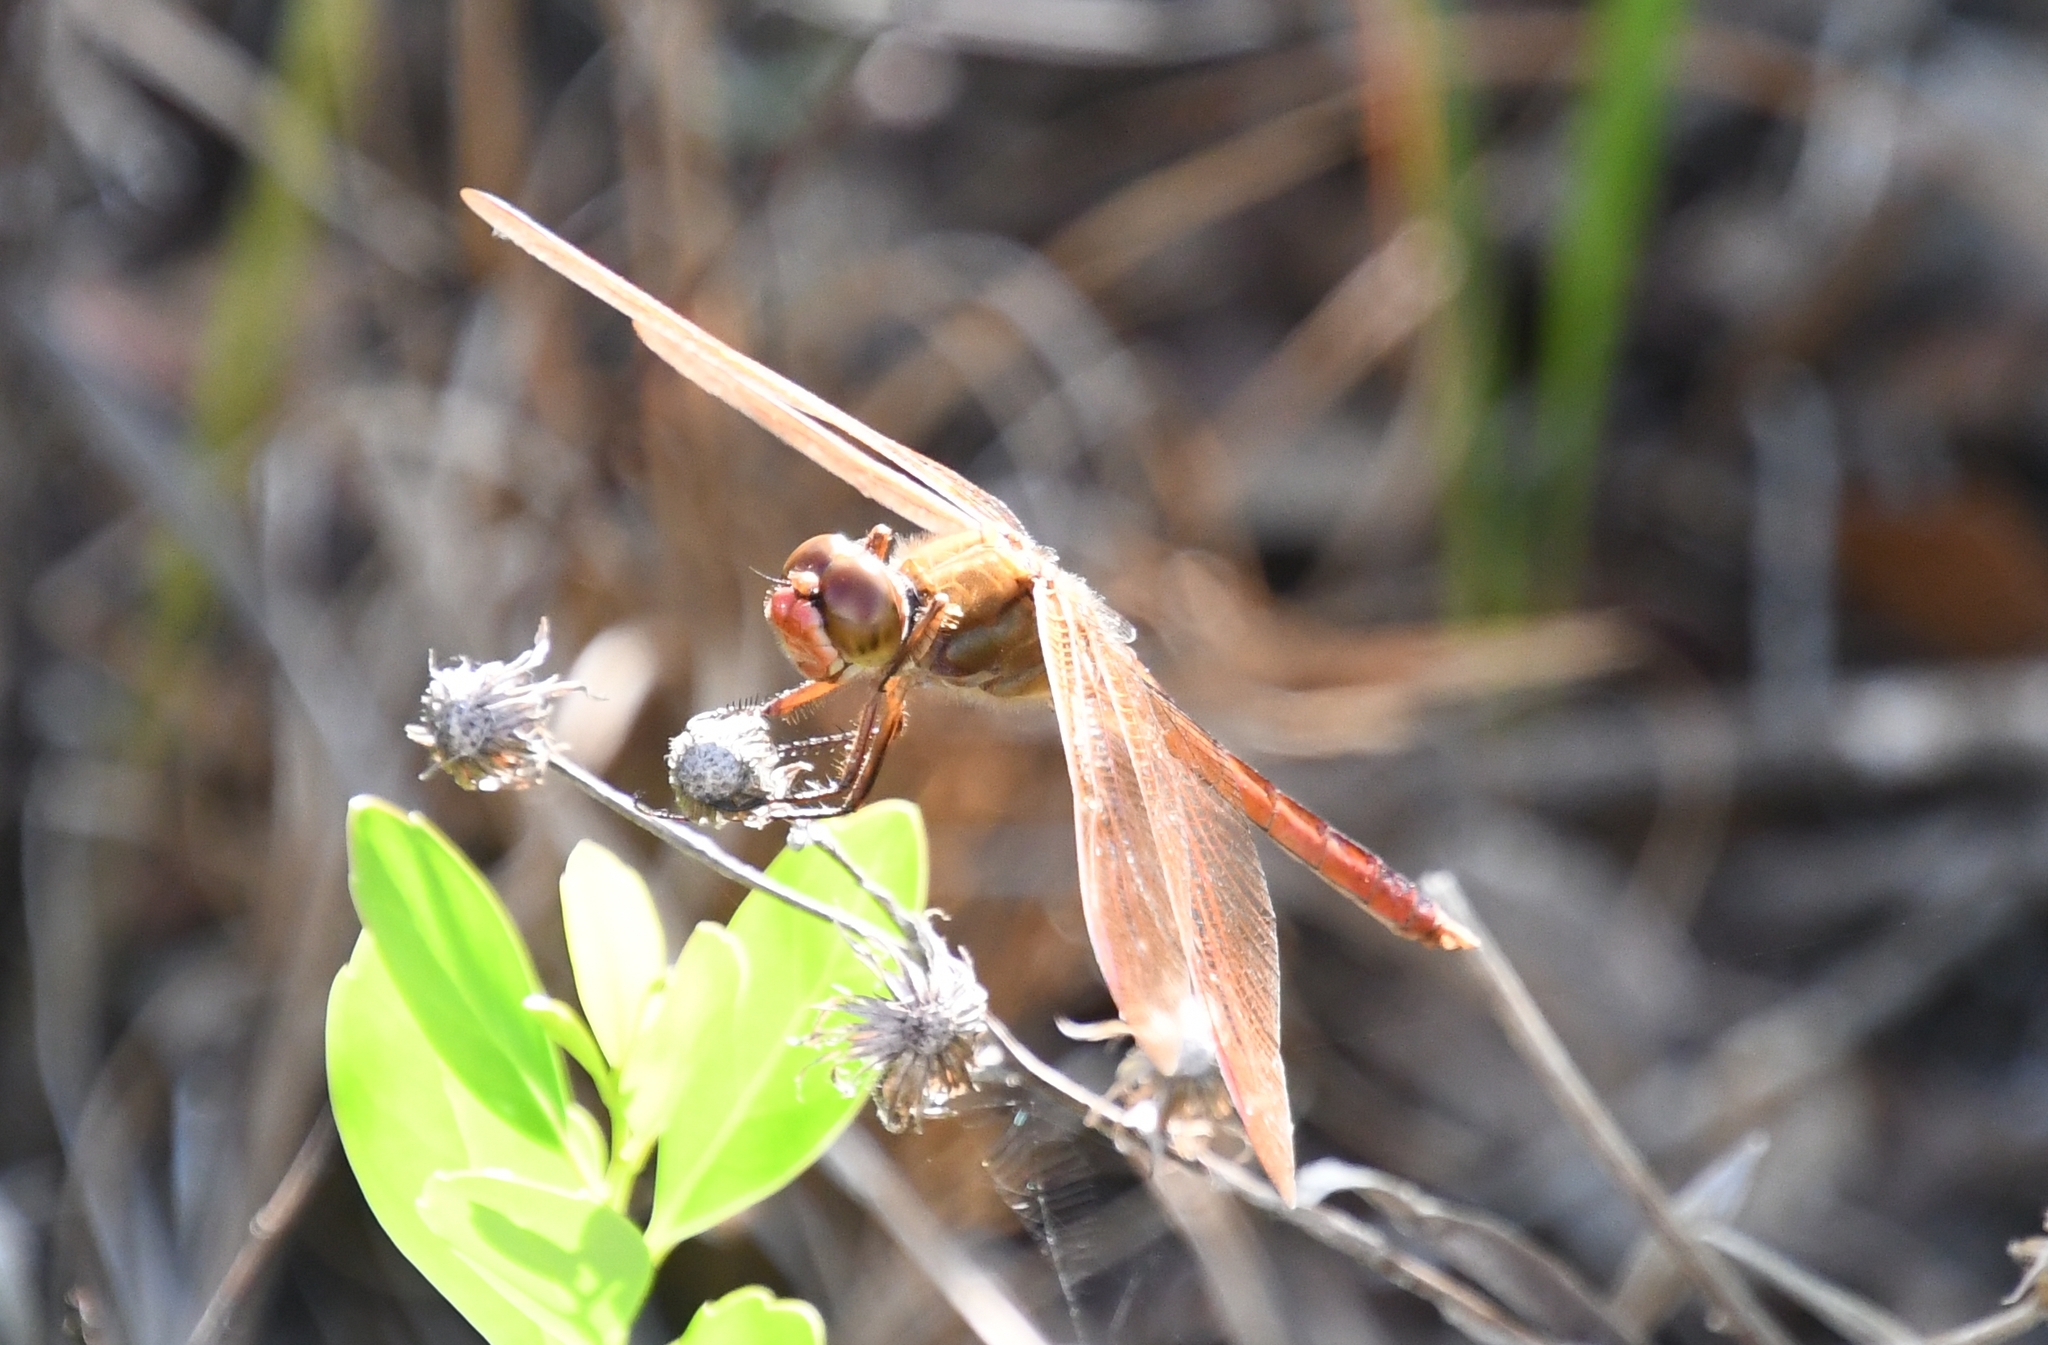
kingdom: Animalia
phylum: Arthropoda
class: Insecta
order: Odonata
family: Libellulidae
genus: Libellula
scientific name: Libellula auripennis
